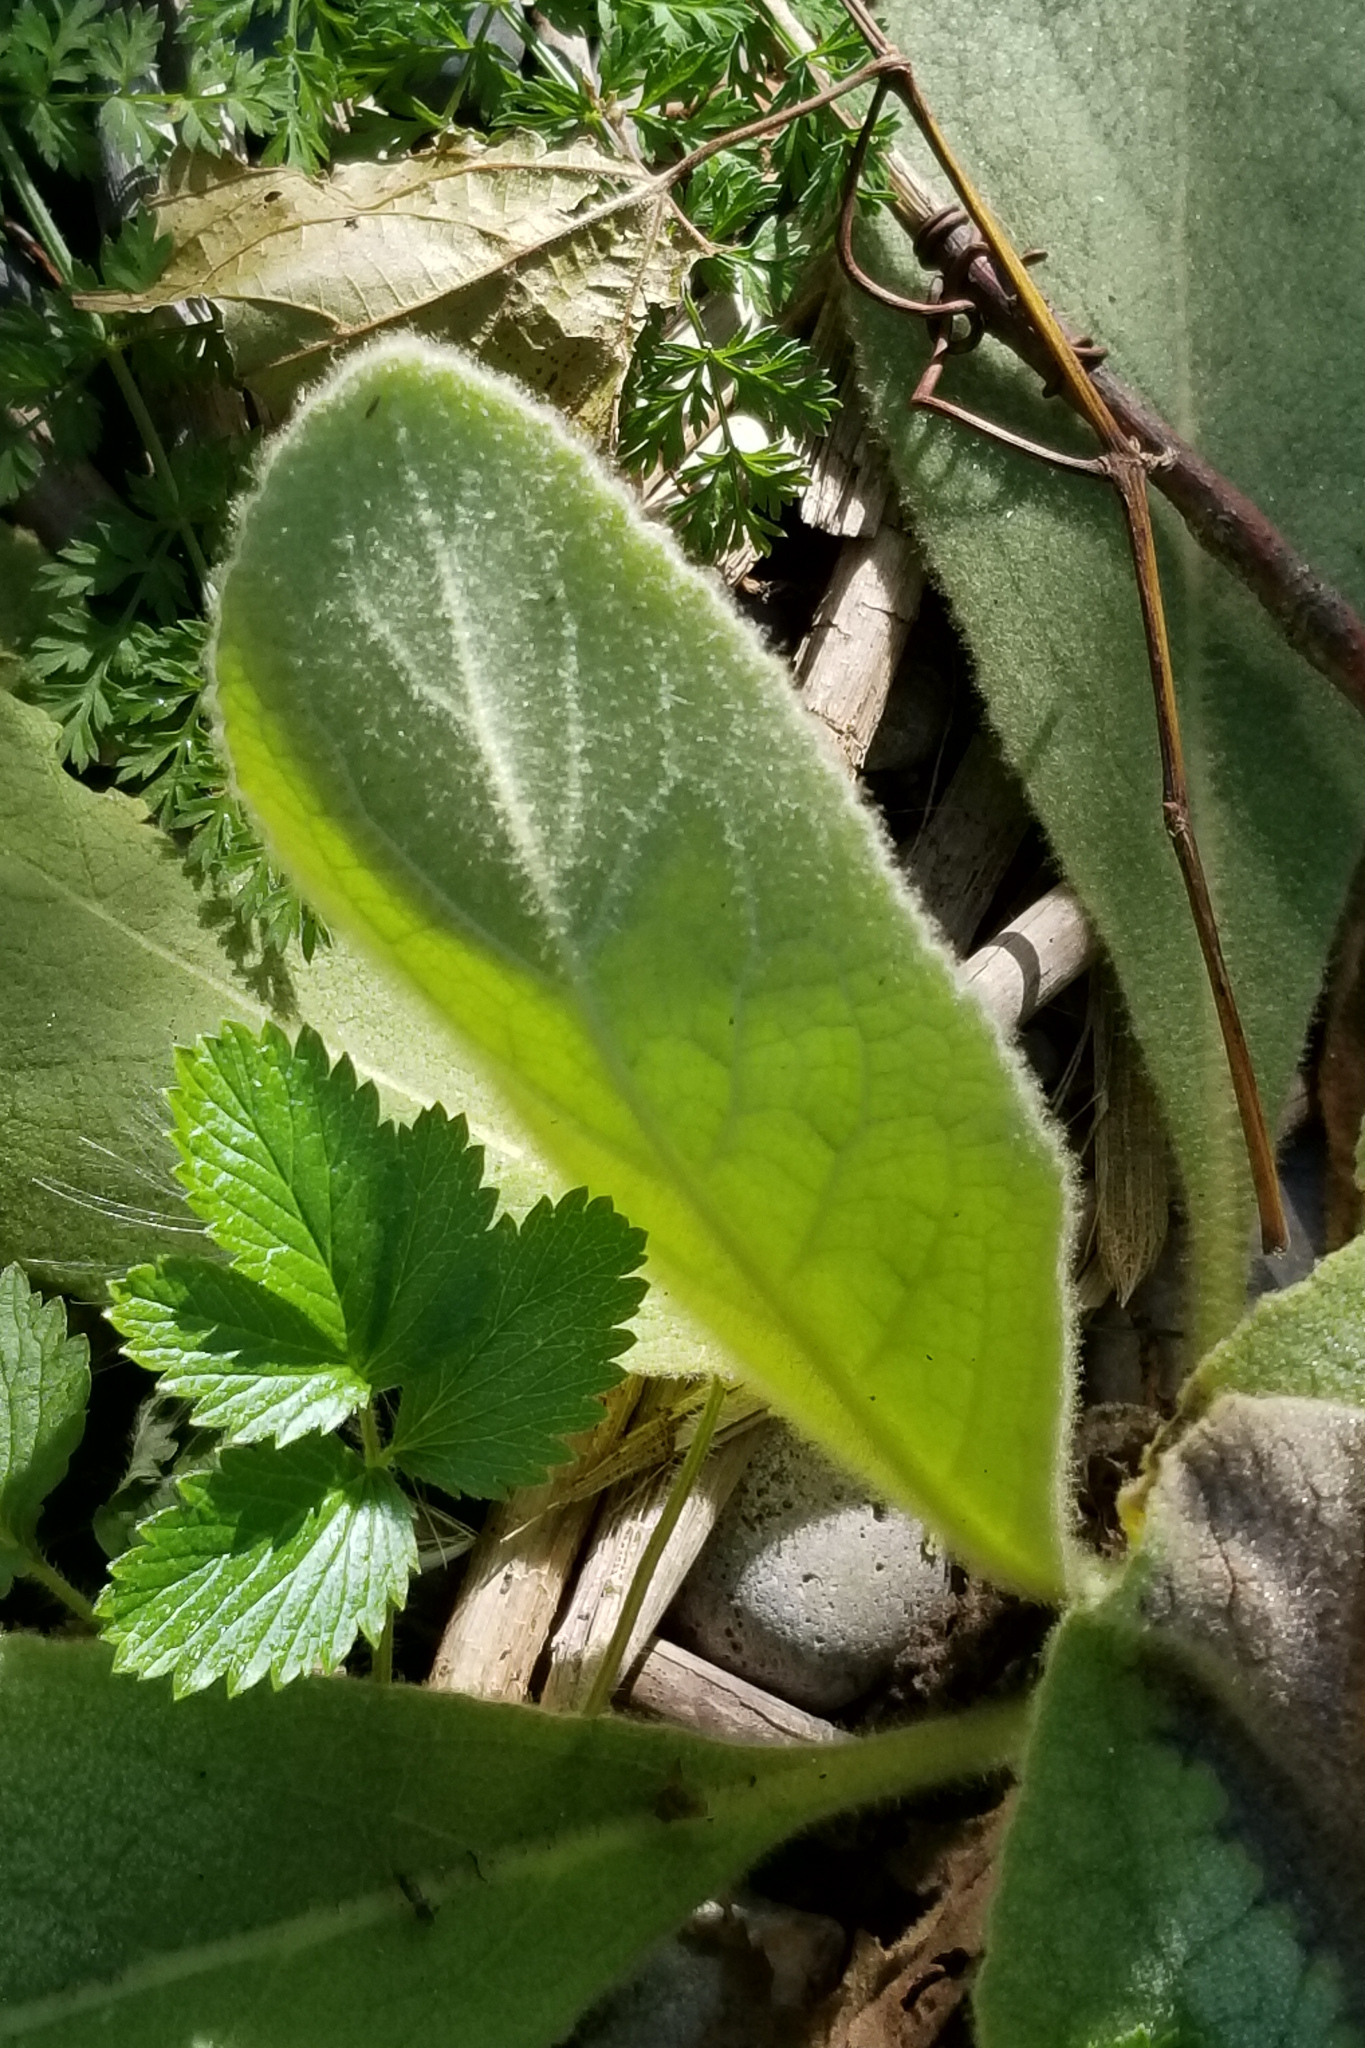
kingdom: Plantae
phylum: Tracheophyta
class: Magnoliopsida
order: Lamiales
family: Scrophulariaceae
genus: Verbascum
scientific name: Verbascum thapsus
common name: Common mullein
